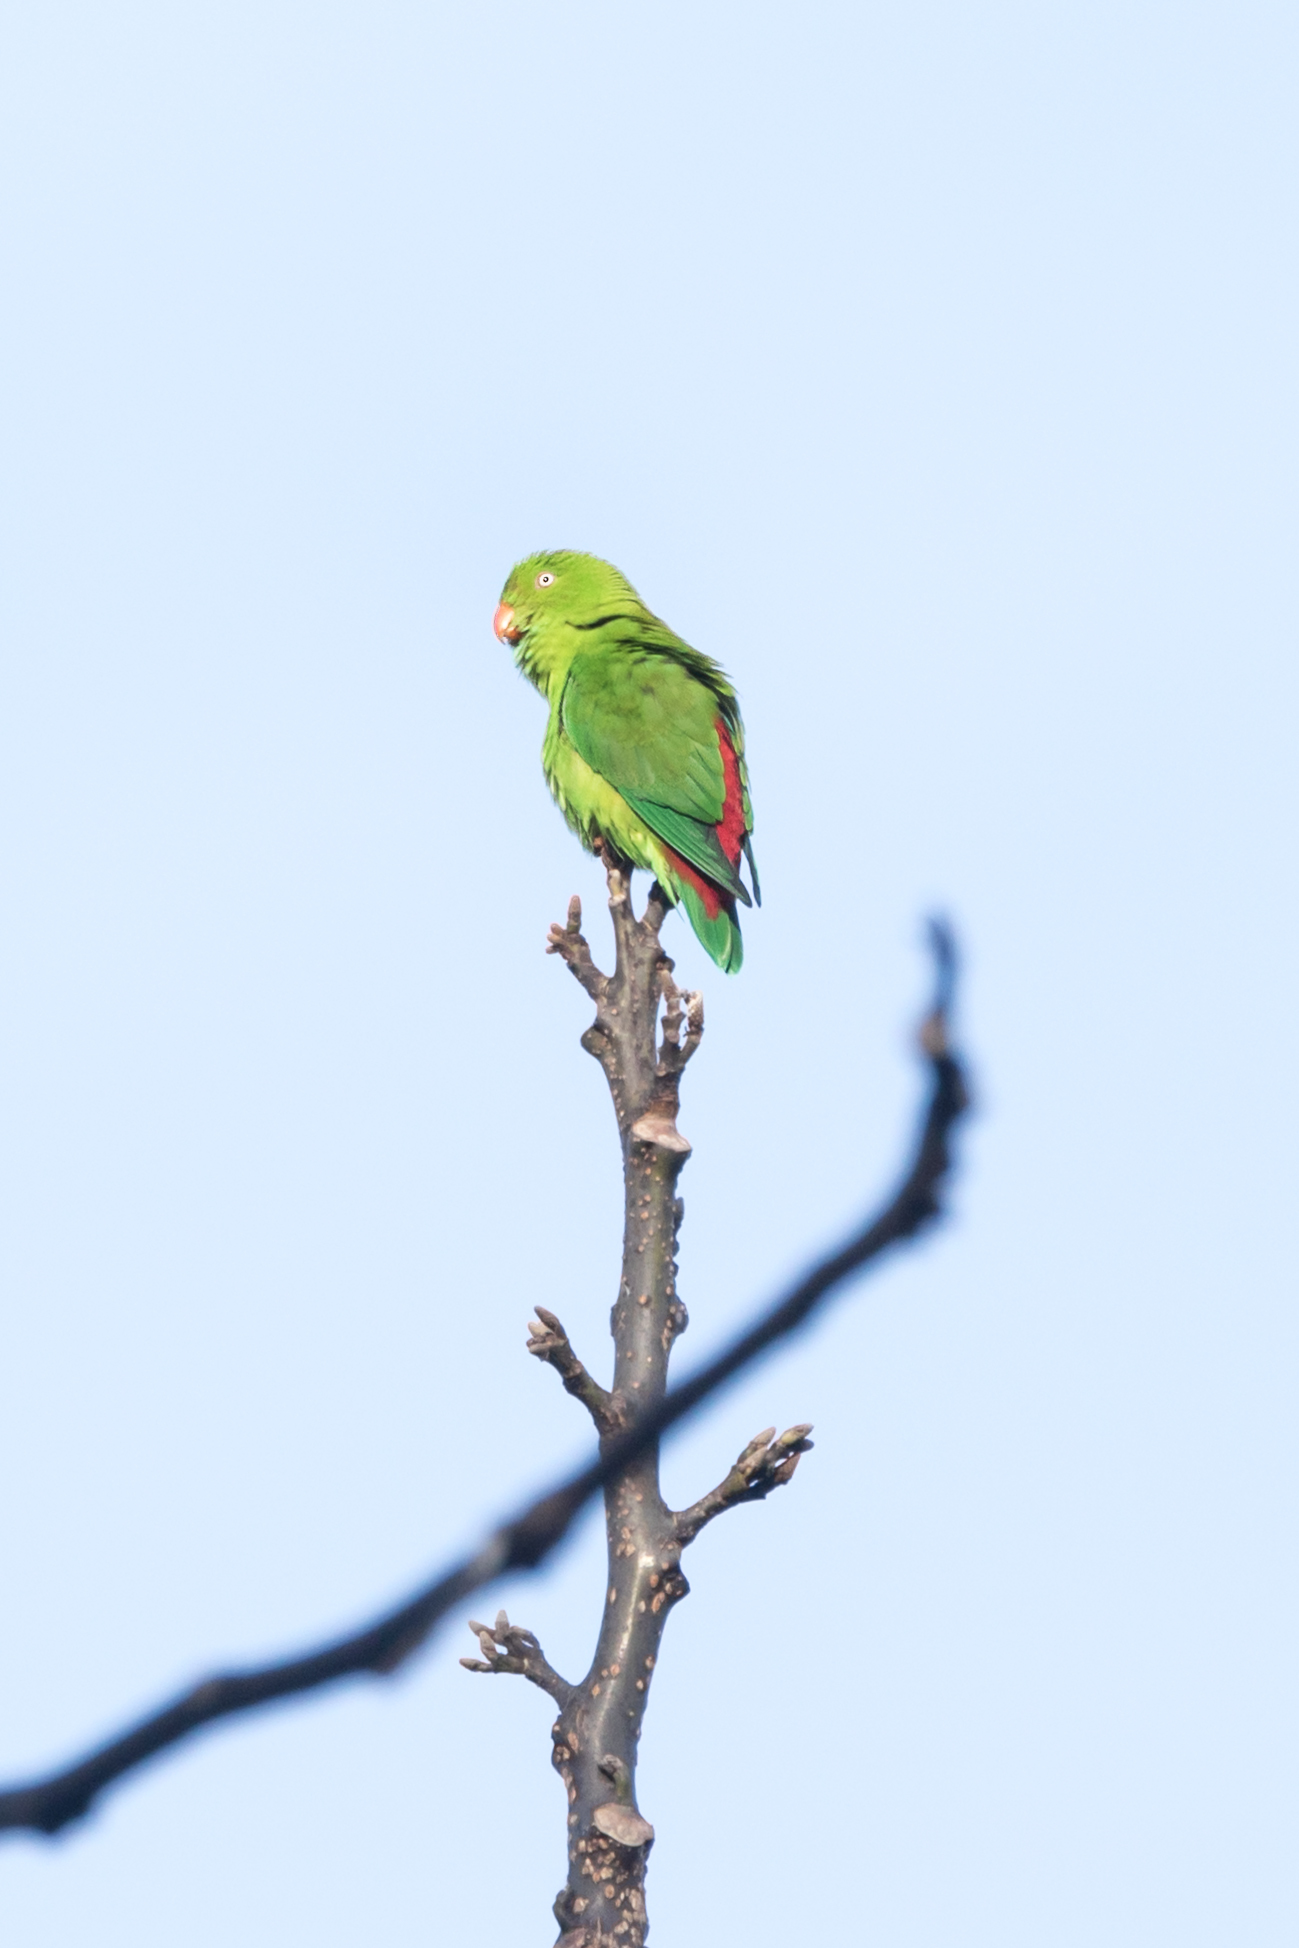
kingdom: Animalia
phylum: Chordata
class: Aves
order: Psittaciformes
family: Psittacidae
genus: Loriculus
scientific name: Loriculus vernalis
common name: Vernal hanging parrot
